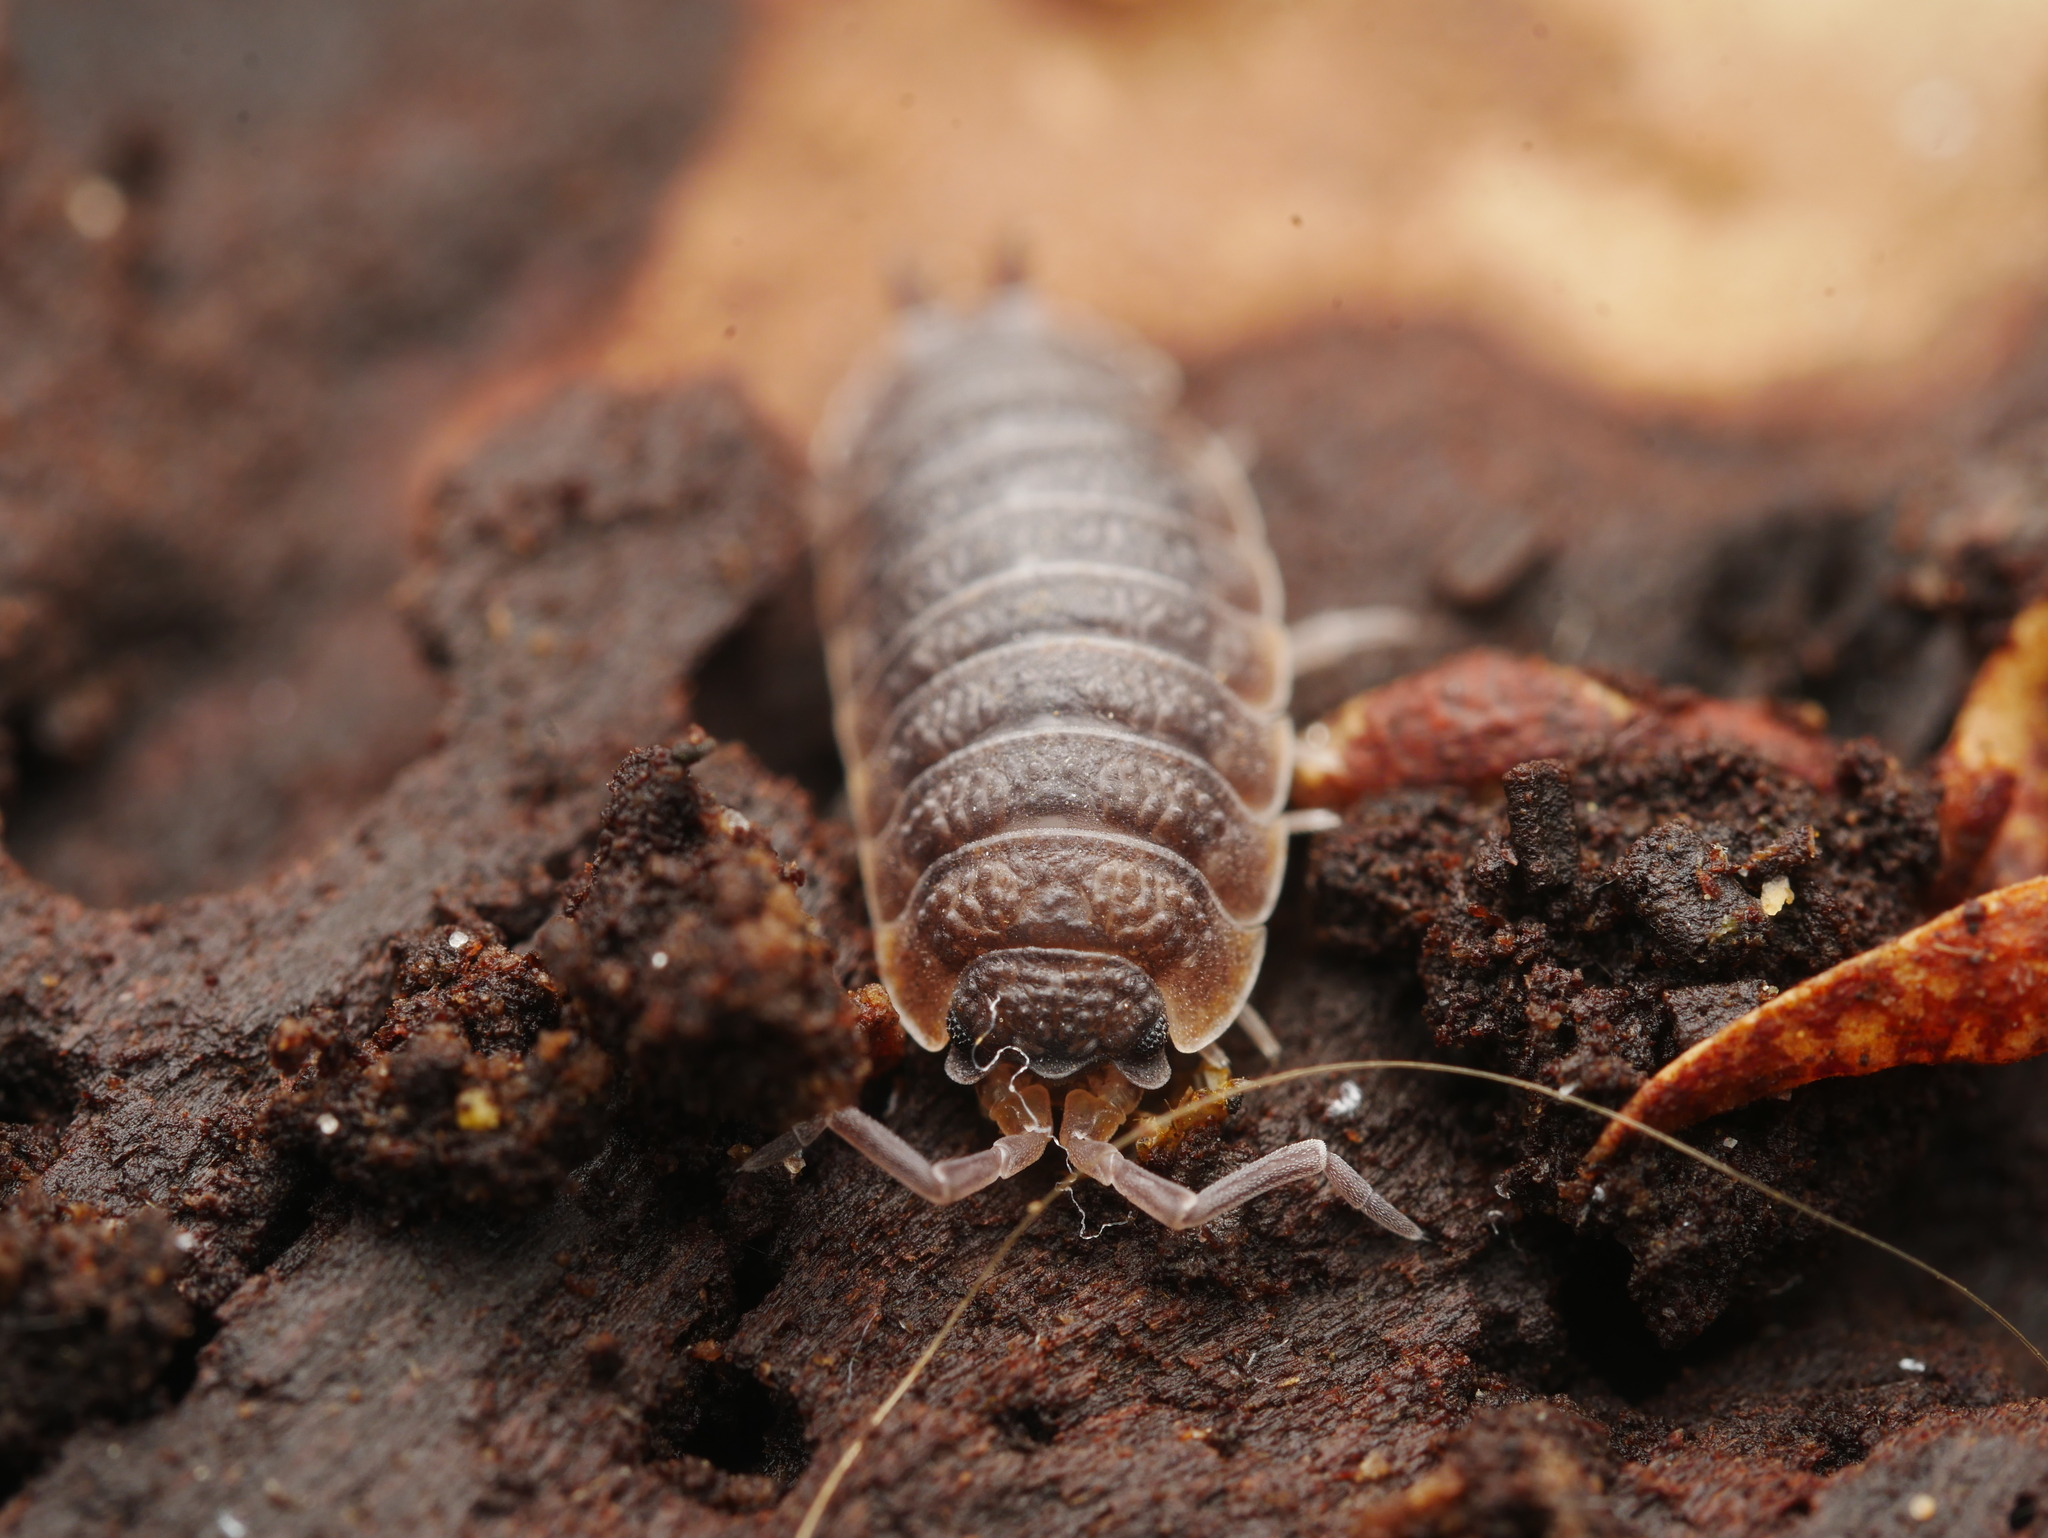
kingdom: Animalia
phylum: Arthropoda
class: Malacostraca
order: Isopoda
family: Porcellionidae
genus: Porcellio
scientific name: Porcellio scaber
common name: Common rough woodlouse
